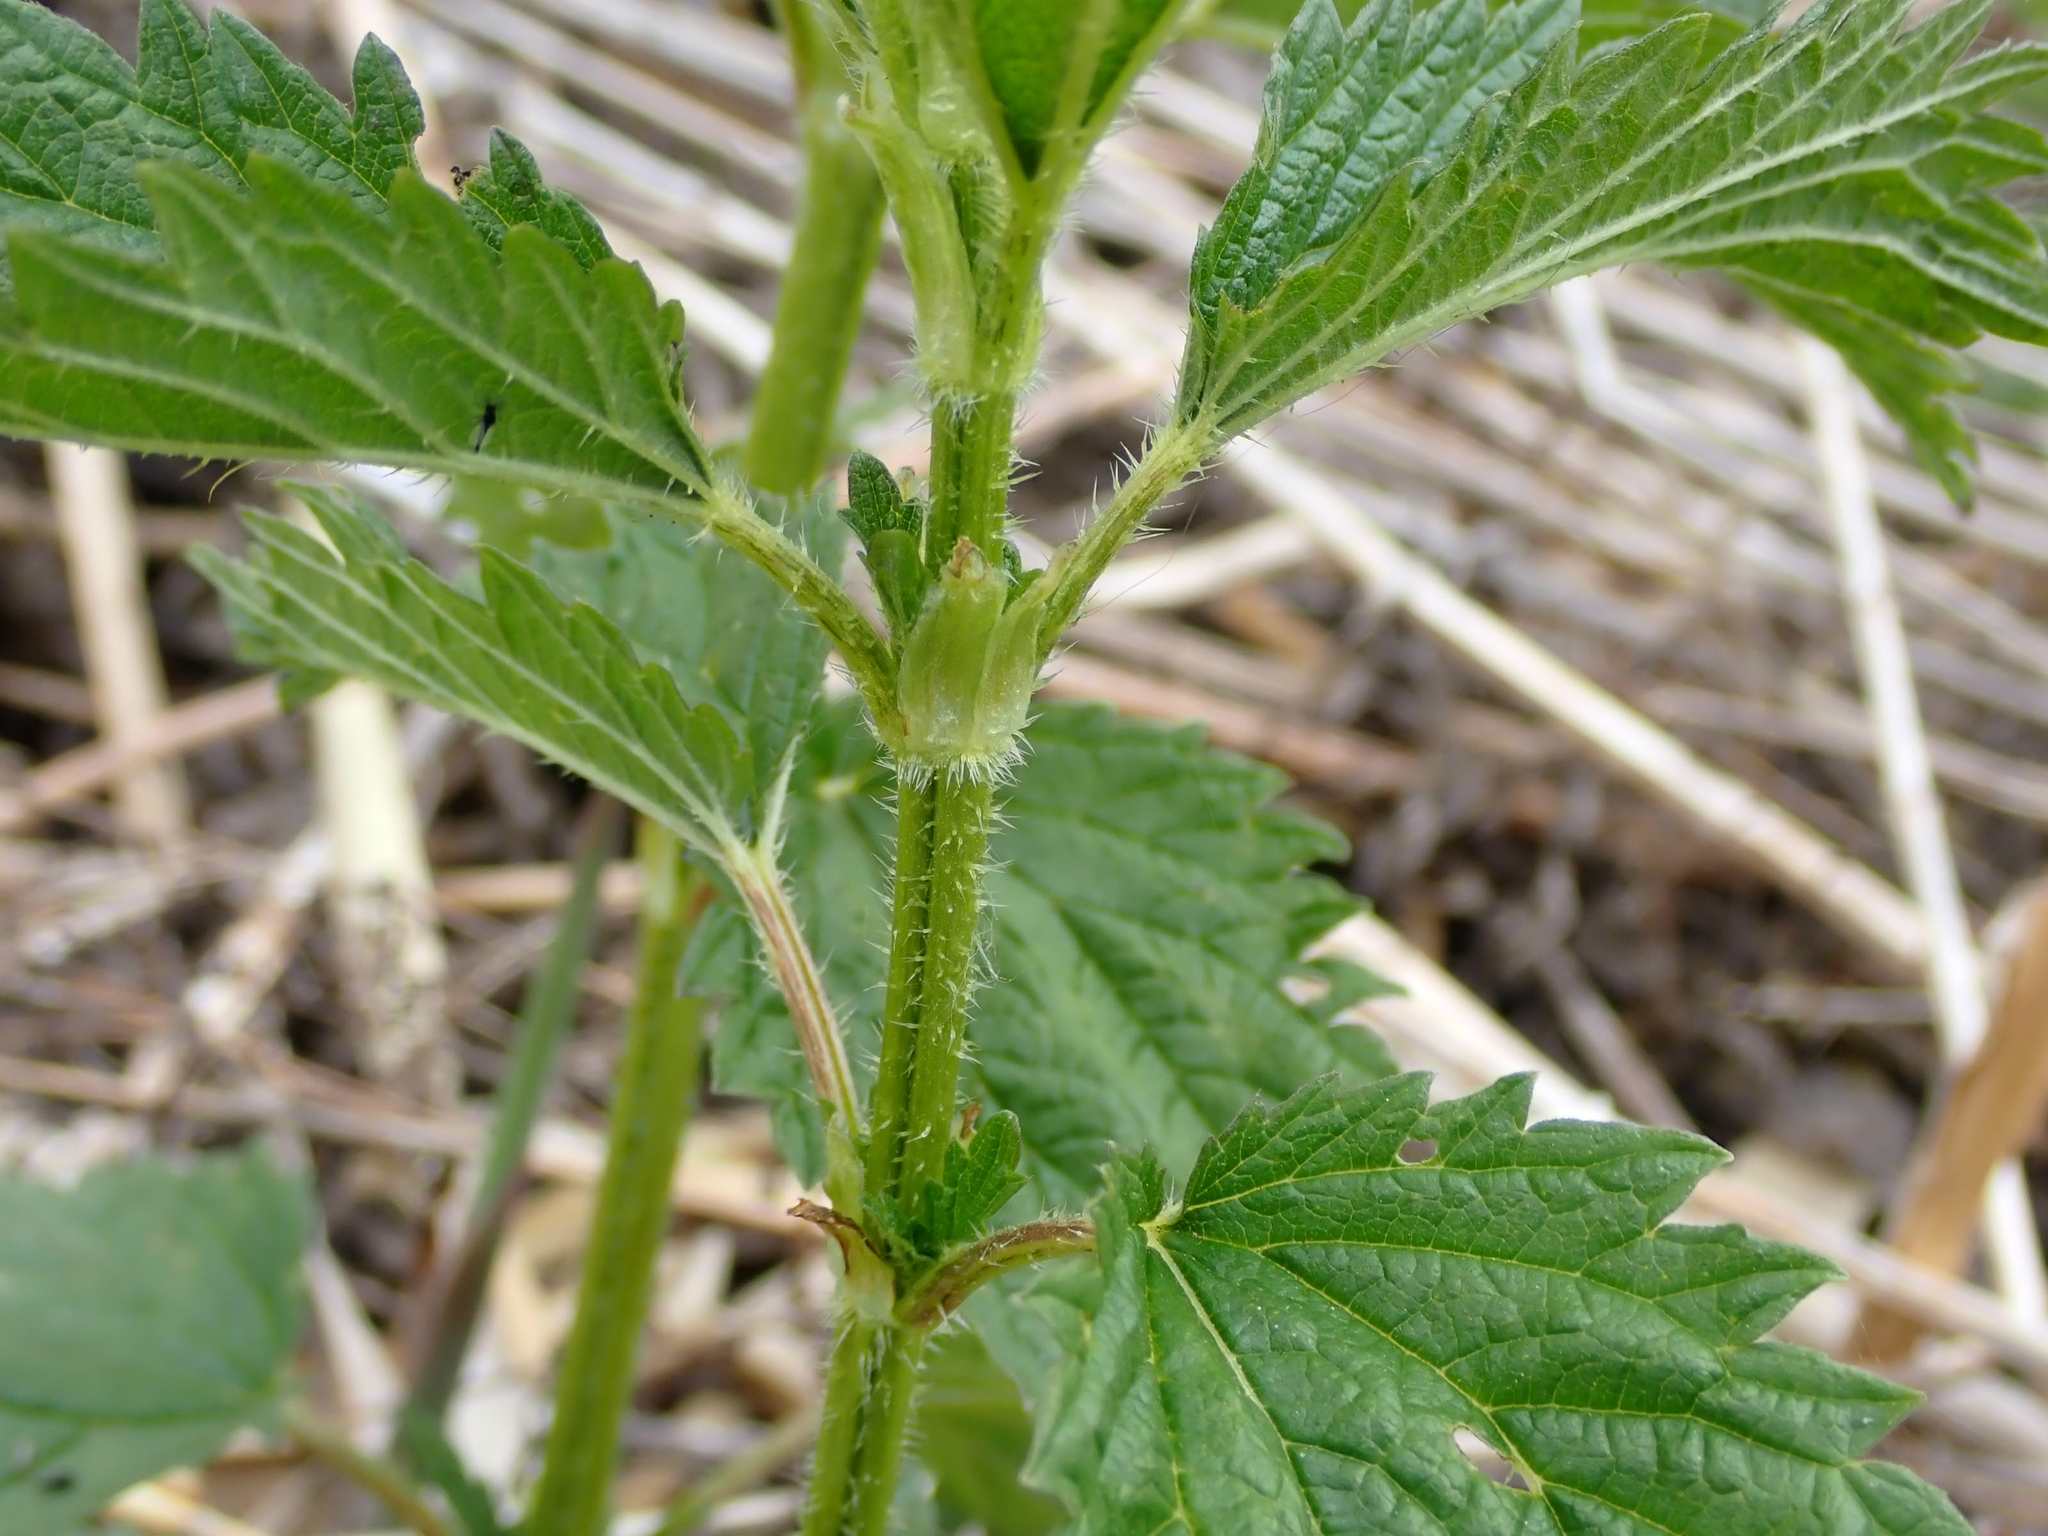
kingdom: Plantae
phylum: Tracheophyta
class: Magnoliopsida
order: Rosales
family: Urticaceae
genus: Urtica
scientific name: Urtica gracilis
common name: Slender stinging nettle
